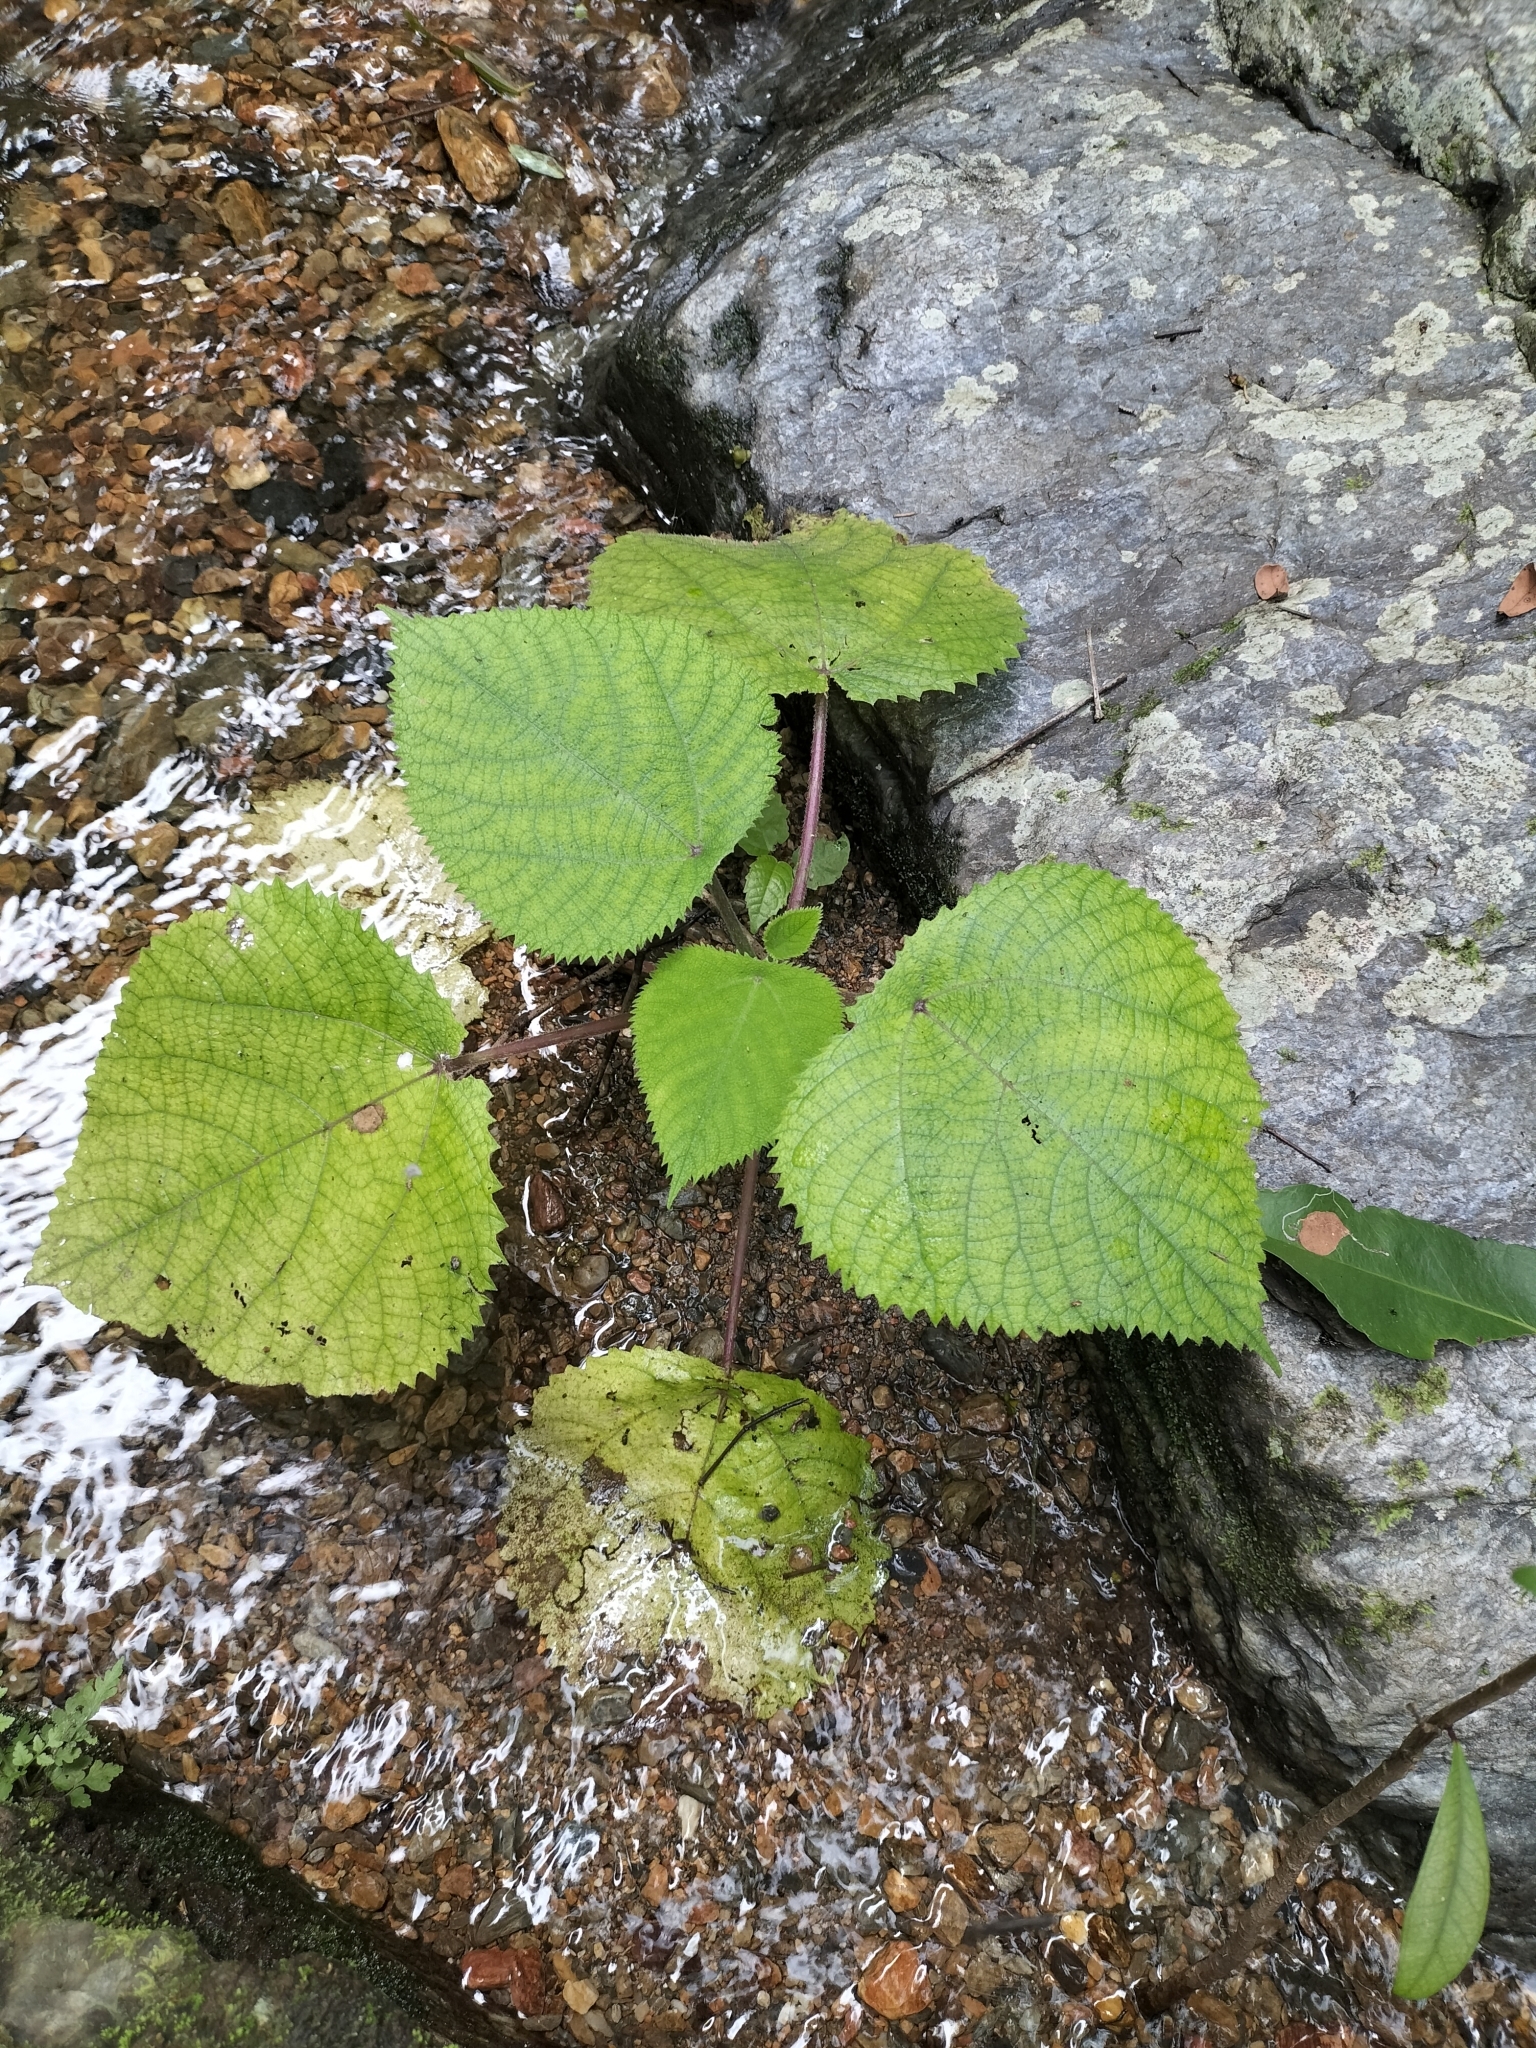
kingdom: Plantae
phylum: Tracheophyta
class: Magnoliopsida
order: Rosales
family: Urticaceae
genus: Dendrocnide
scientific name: Dendrocnide moroides
